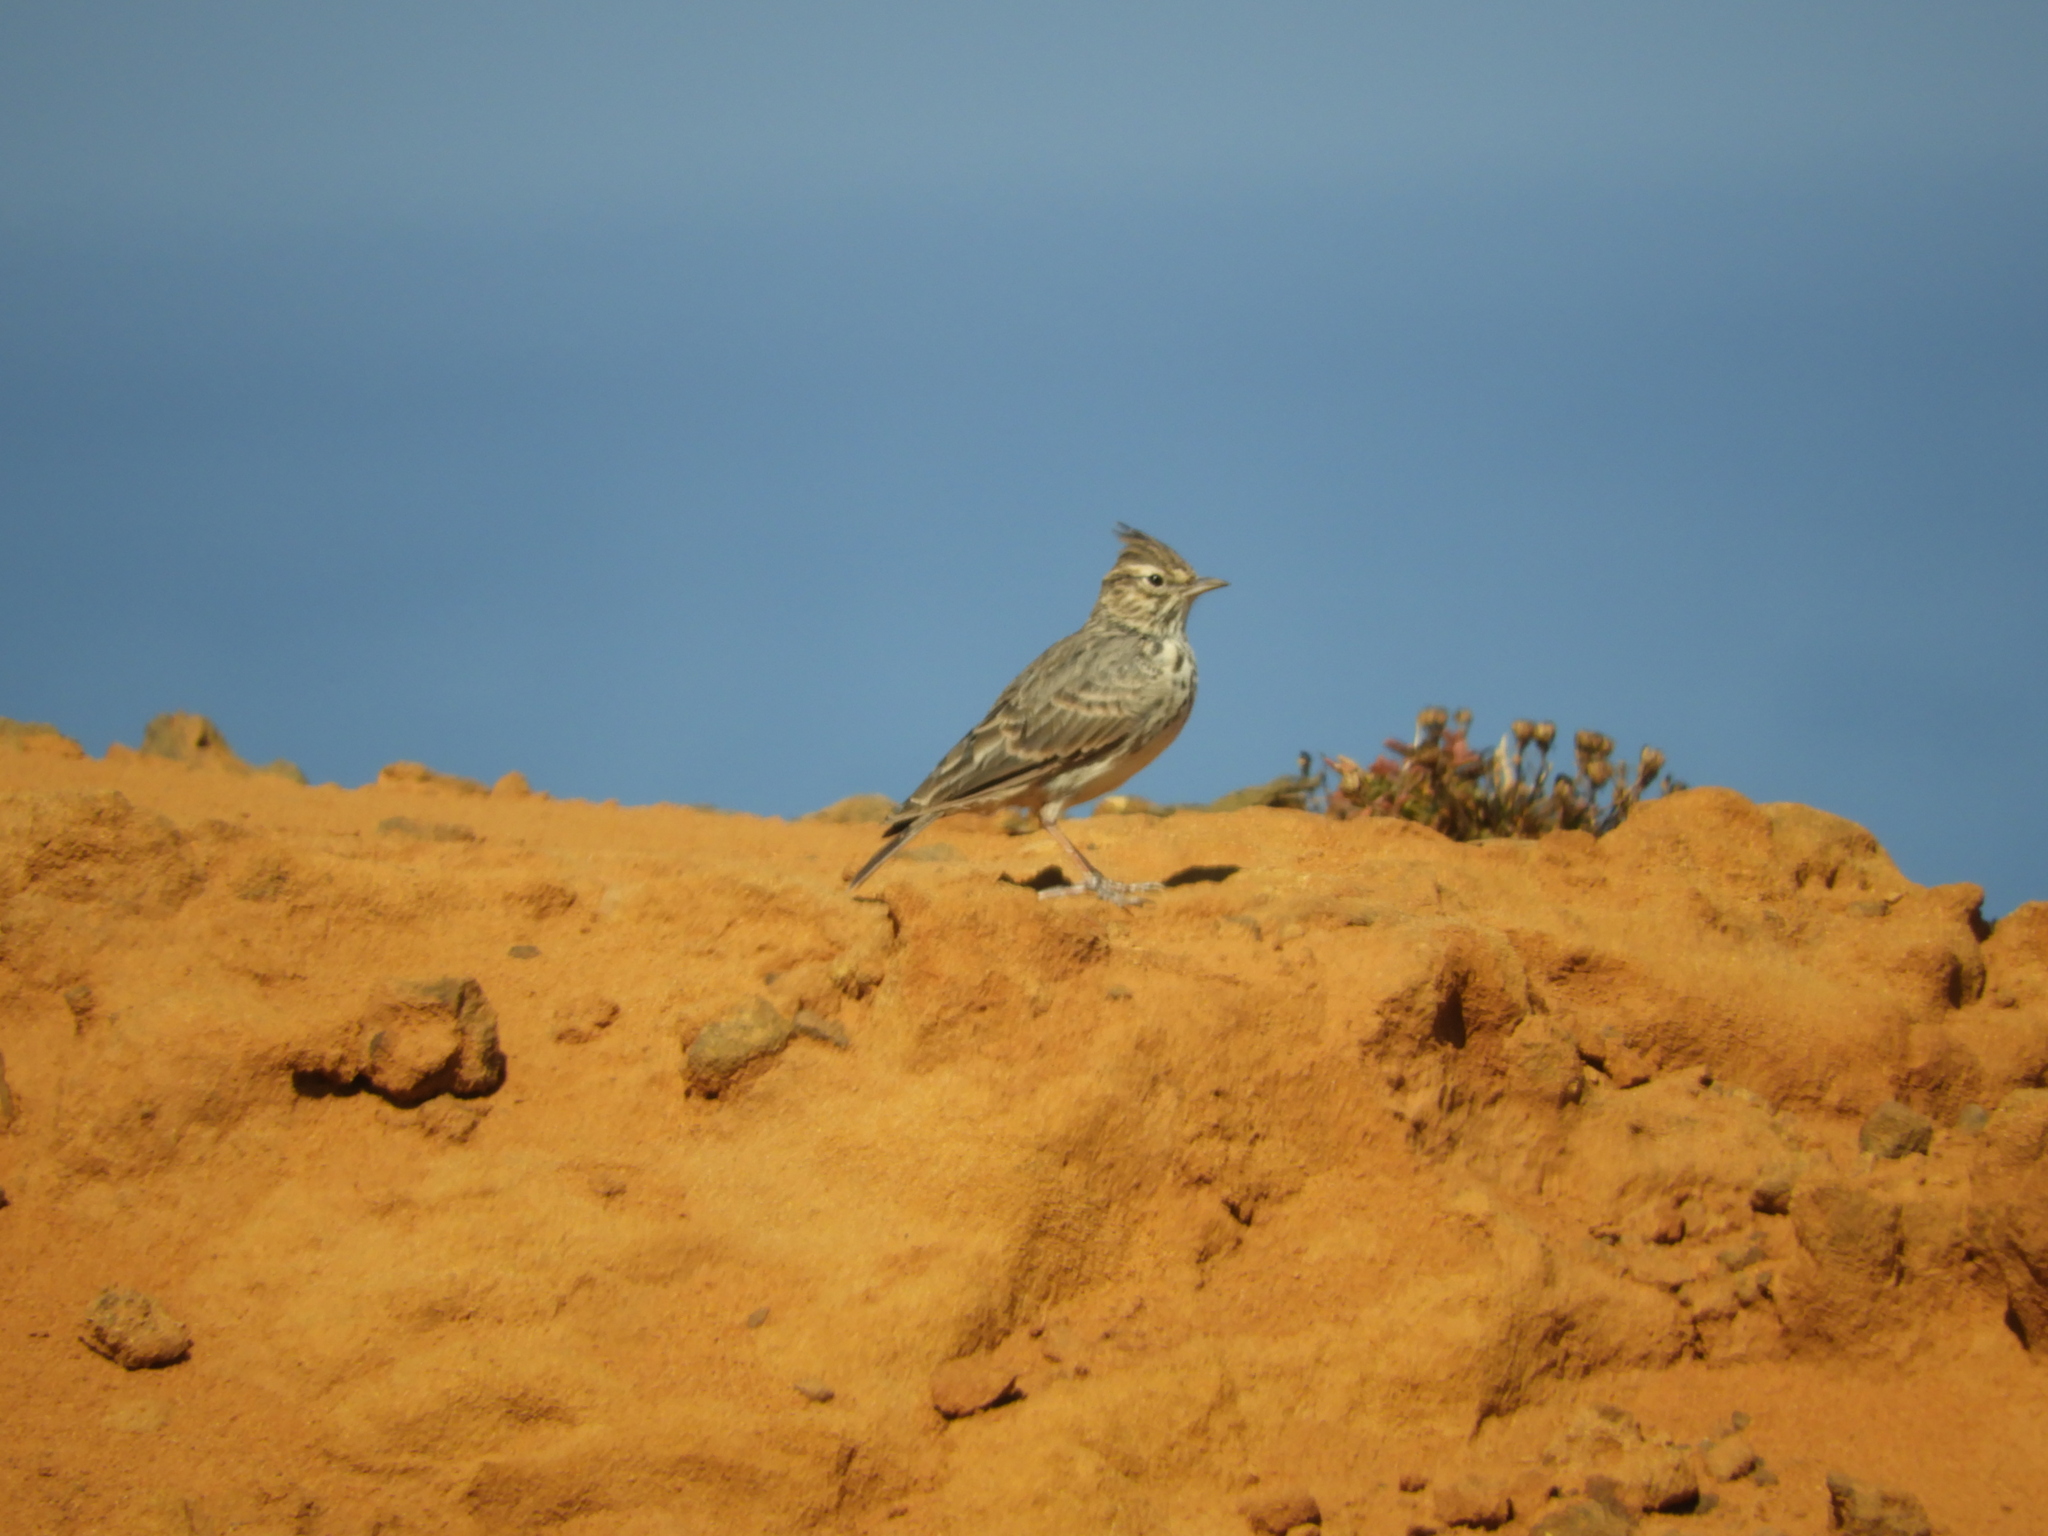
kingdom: Animalia
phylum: Chordata
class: Aves
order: Passeriformes
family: Alaudidae
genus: Galerida
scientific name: Galerida theklae
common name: Thekla lark
